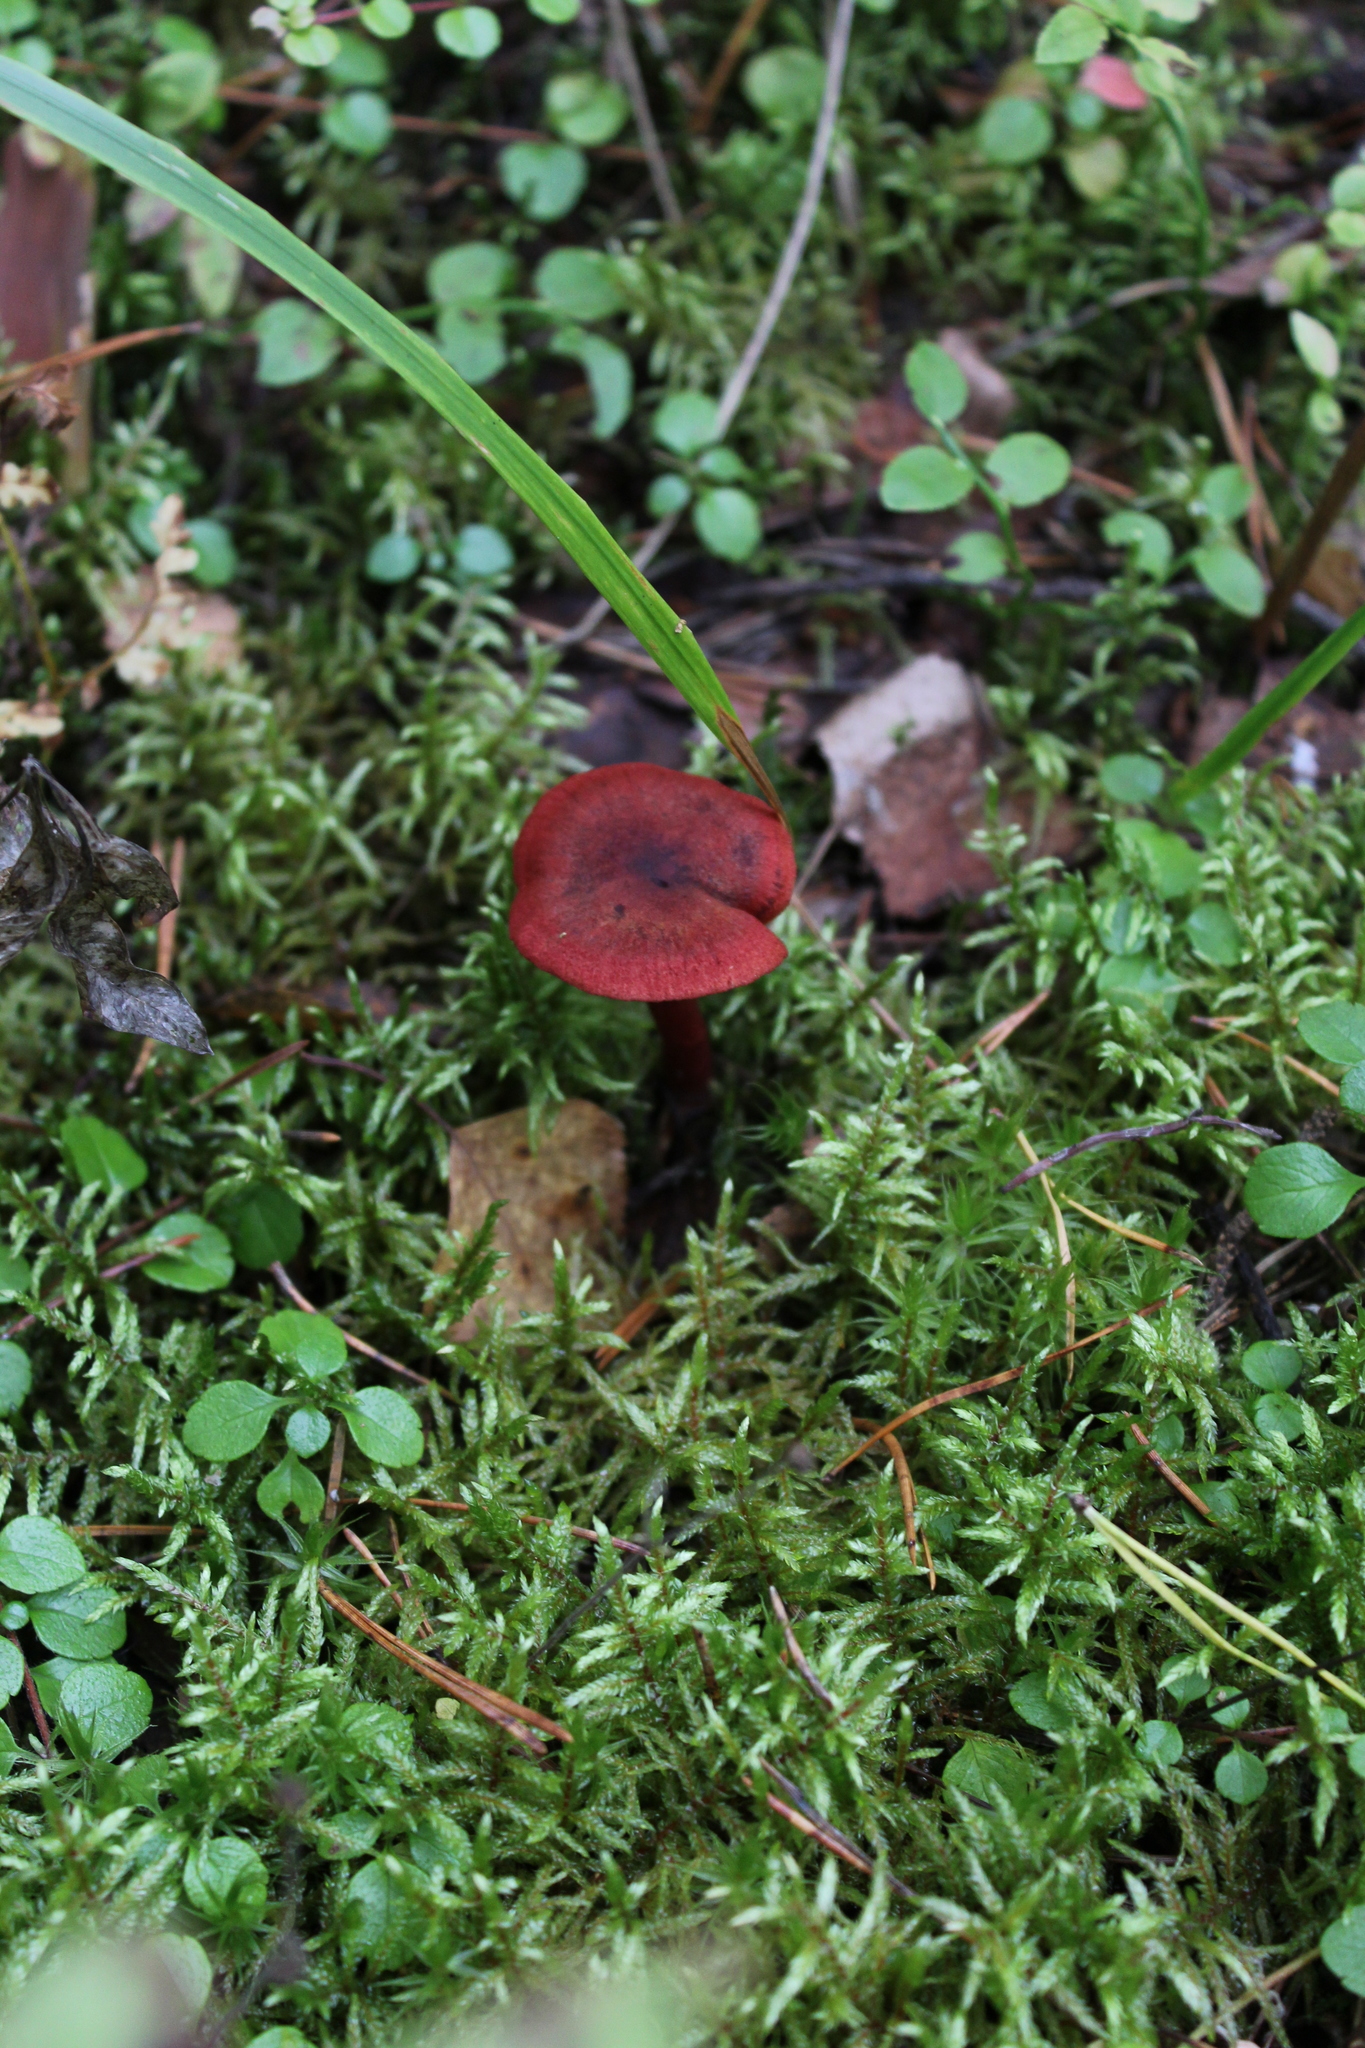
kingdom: Fungi
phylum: Basidiomycota
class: Agaricomycetes
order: Agaricales
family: Cortinariaceae
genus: Cortinarius
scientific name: Cortinarius sanguineus
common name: Bloodred webcap
